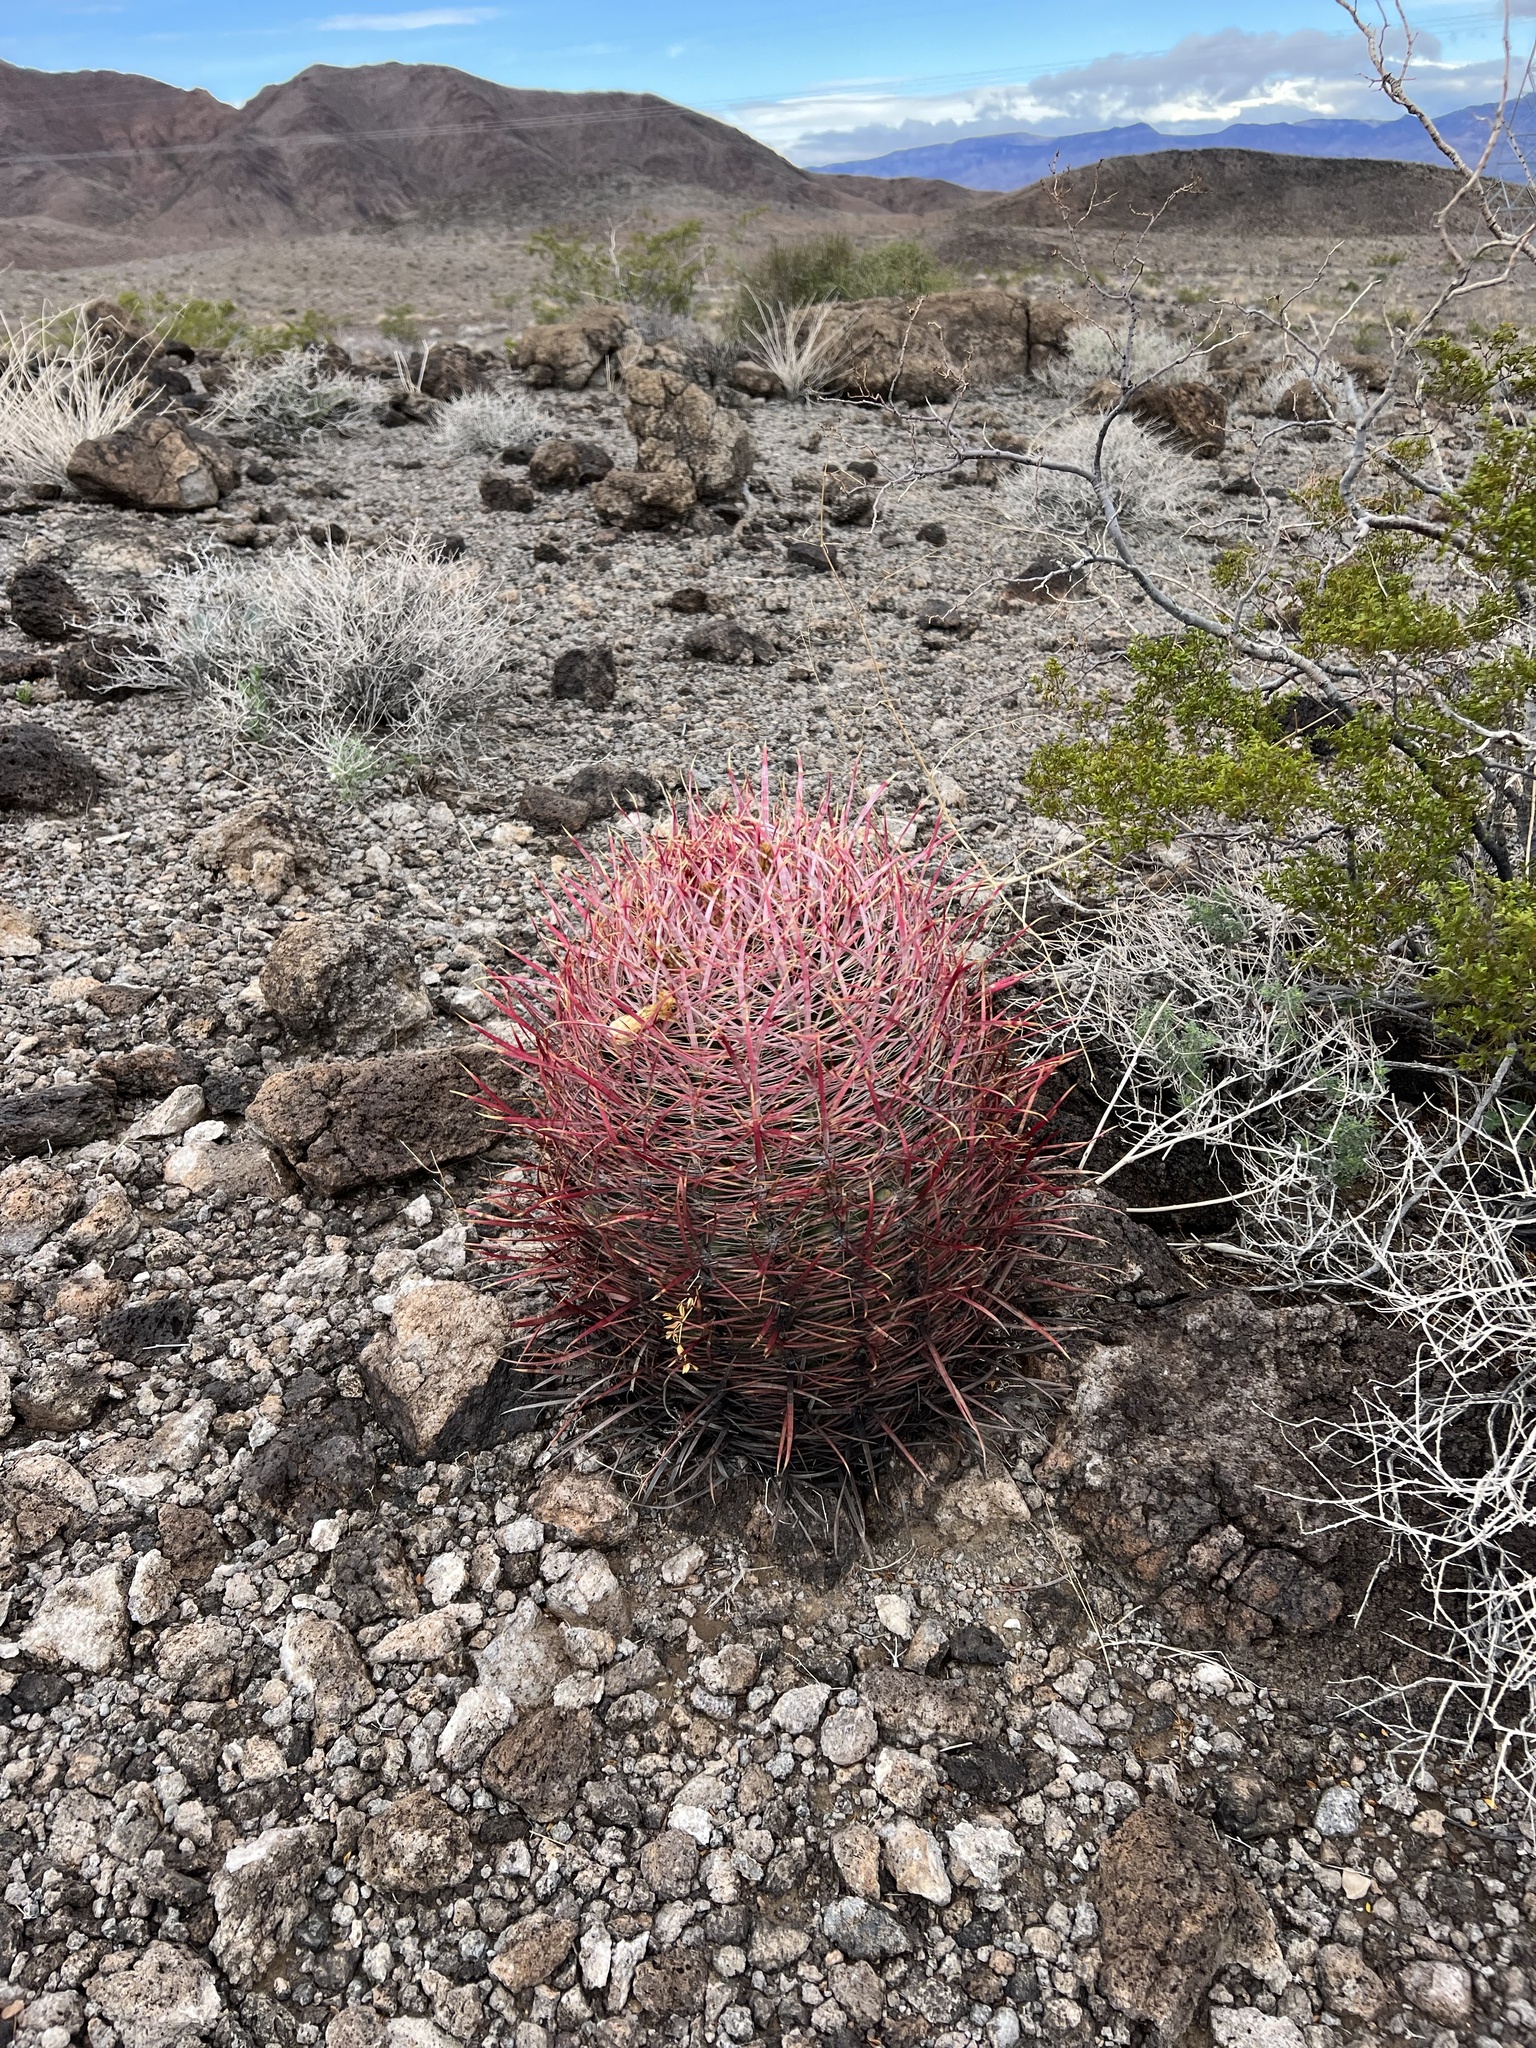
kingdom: Plantae
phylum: Tracheophyta
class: Magnoliopsida
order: Caryophyllales
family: Cactaceae
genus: Ferocactus
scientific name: Ferocactus cylindraceus
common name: California barrel cactus
